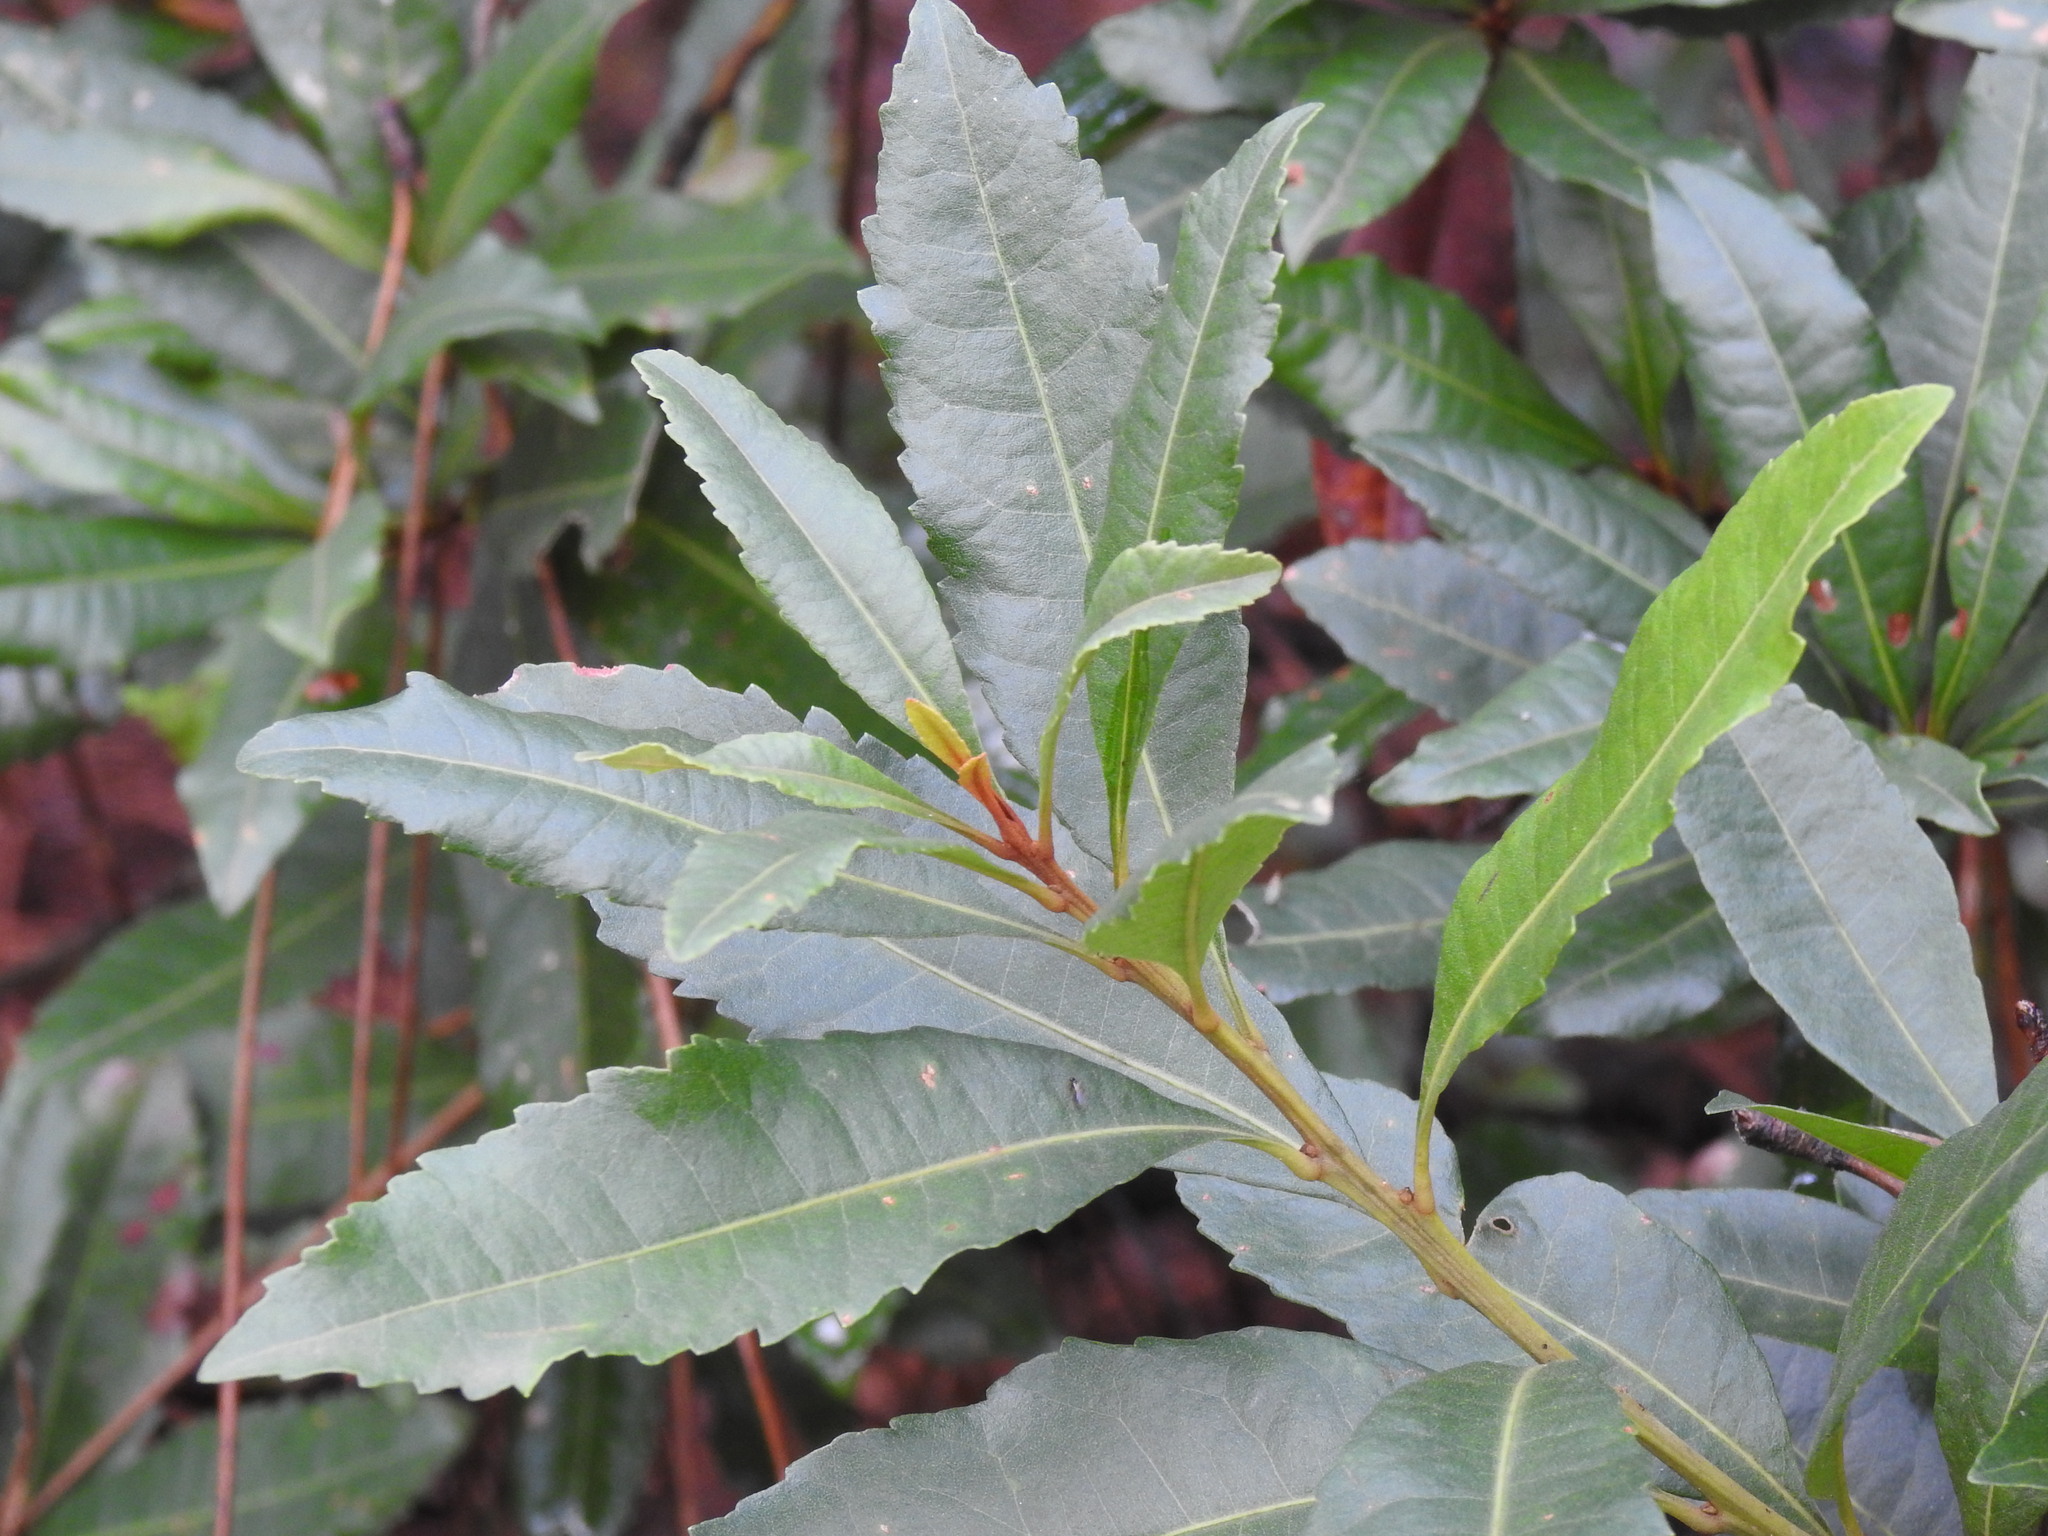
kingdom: Plantae
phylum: Tracheophyta
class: Magnoliopsida
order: Fagales
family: Myricaceae
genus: Morella
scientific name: Morella faya
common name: Firetree
